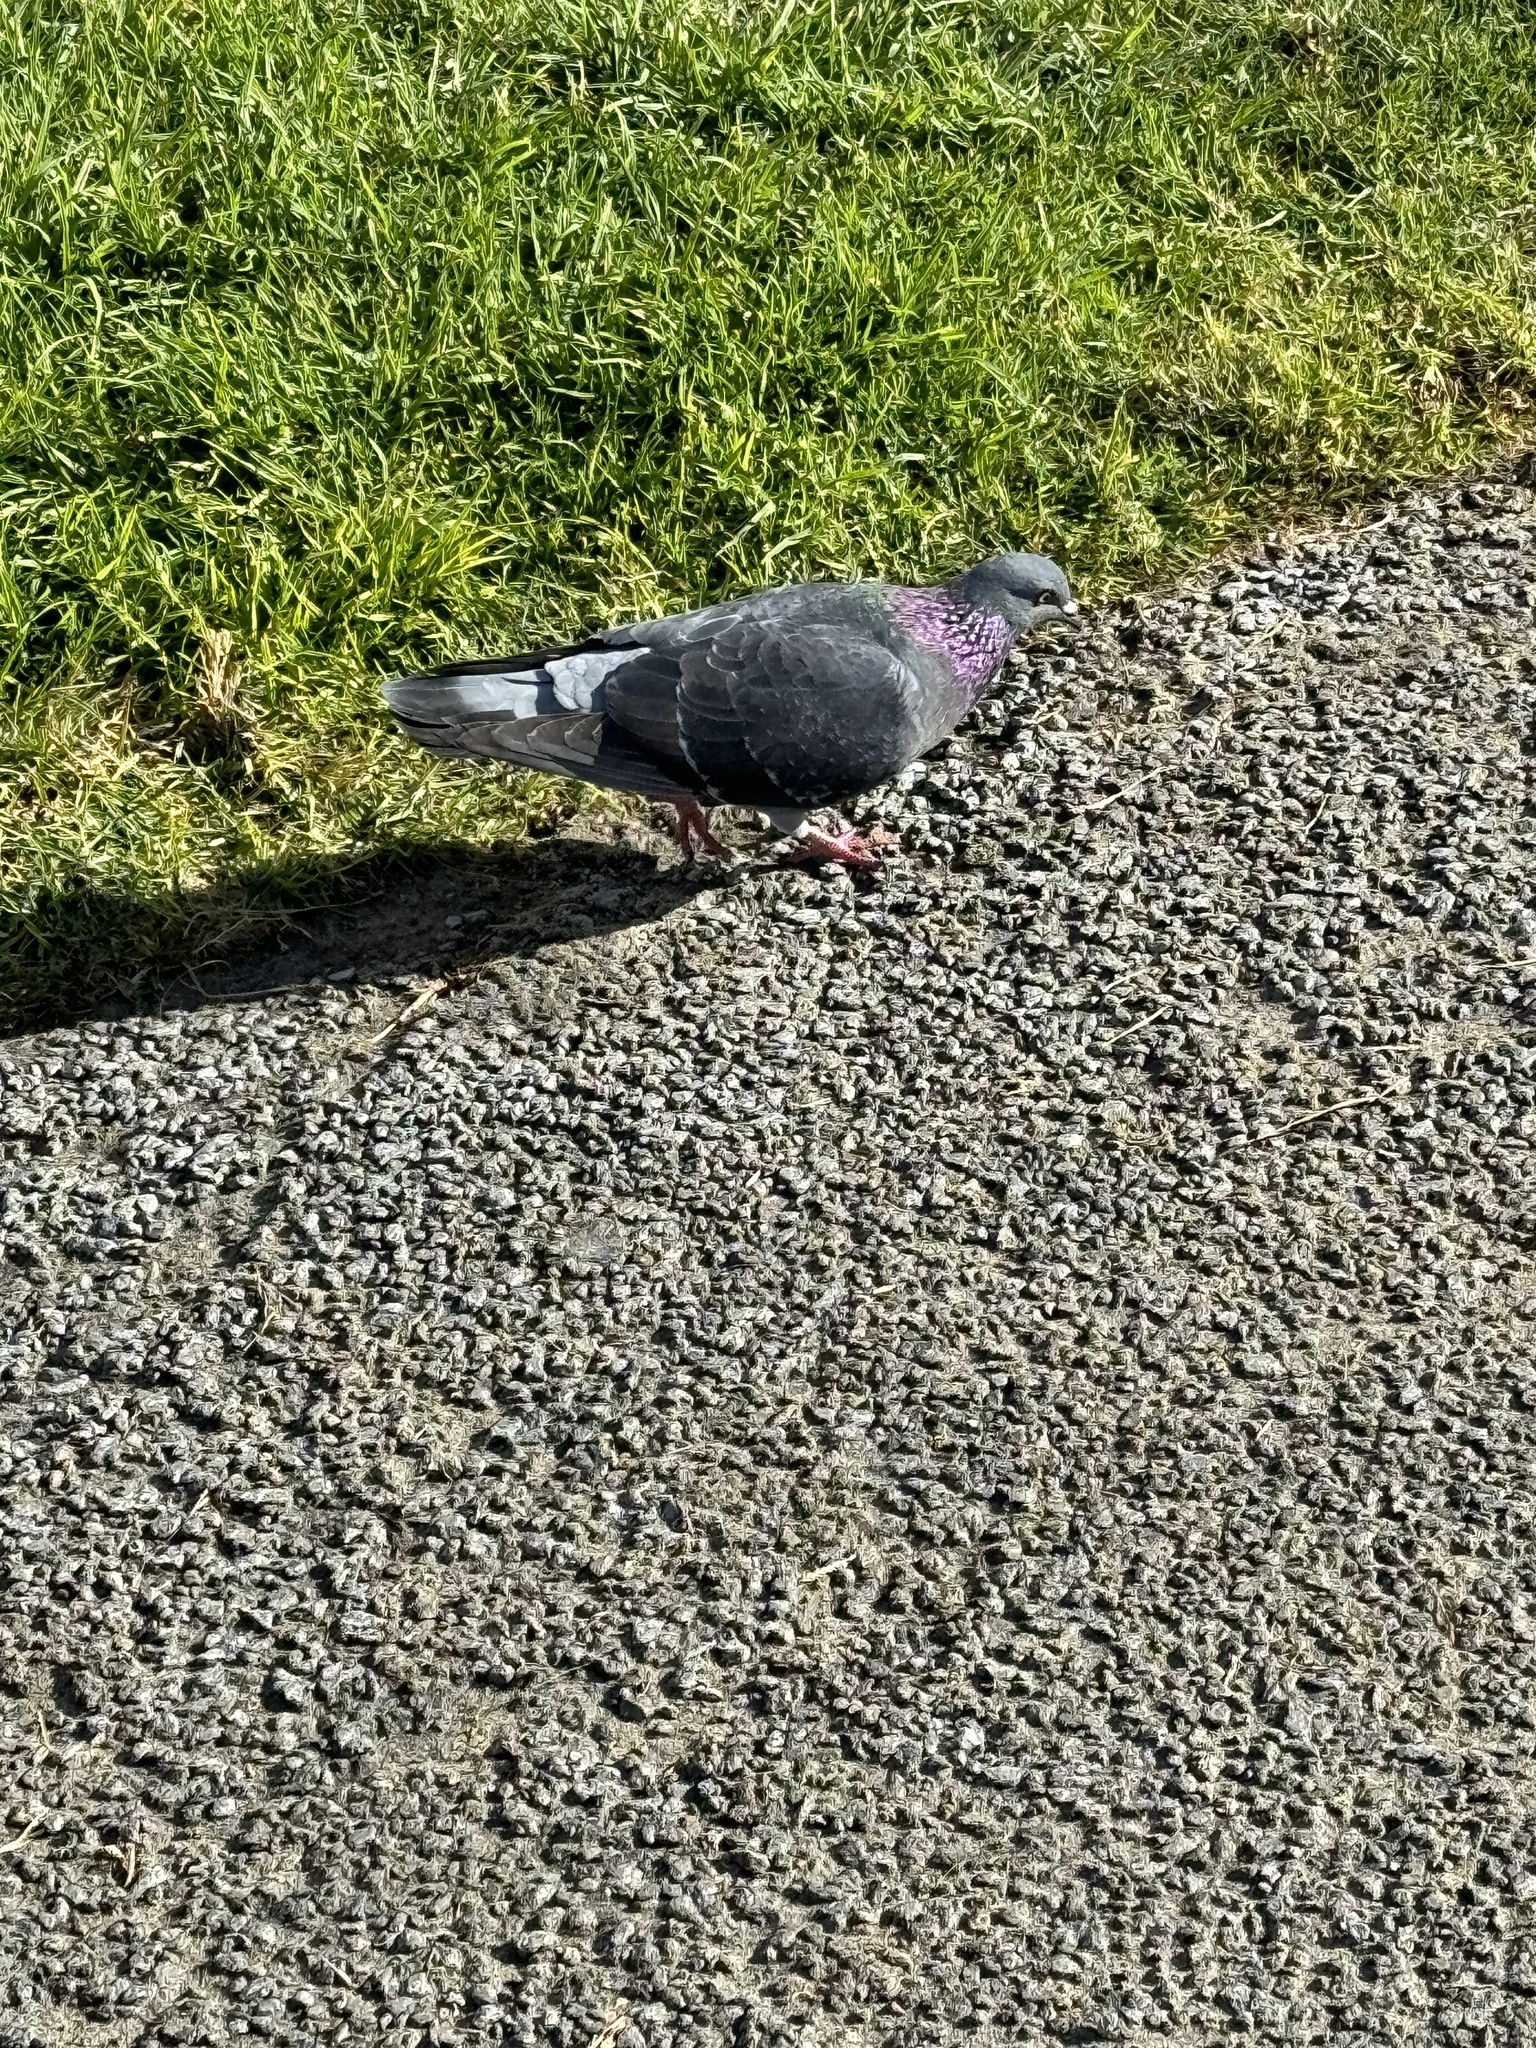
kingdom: Animalia
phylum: Chordata
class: Aves
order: Columbiformes
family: Columbidae
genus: Columba
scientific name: Columba livia
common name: Rock pigeon
